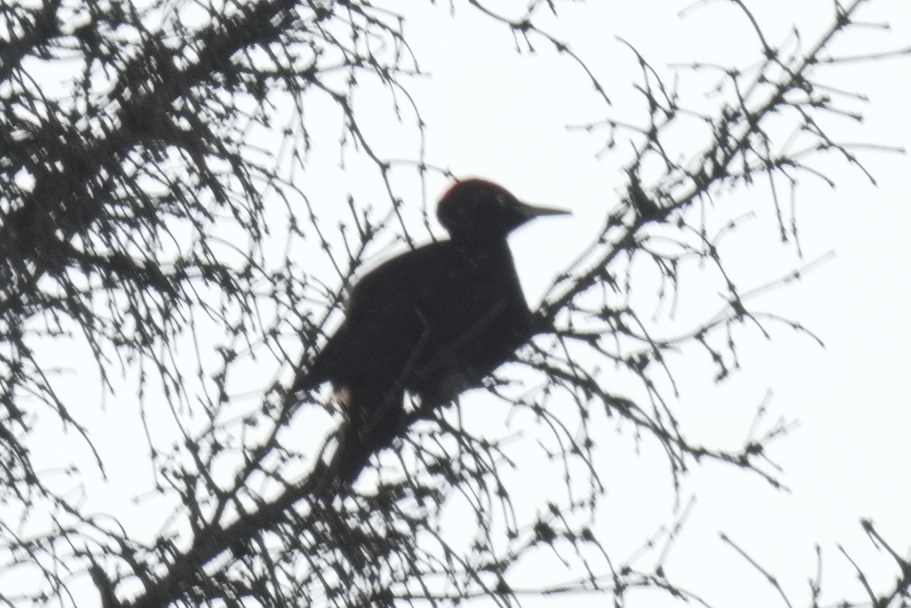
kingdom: Animalia
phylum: Chordata
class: Aves
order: Piciformes
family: Picidae
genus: Dryocopus
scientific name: Dryocopus martius
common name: Black woodpecker
